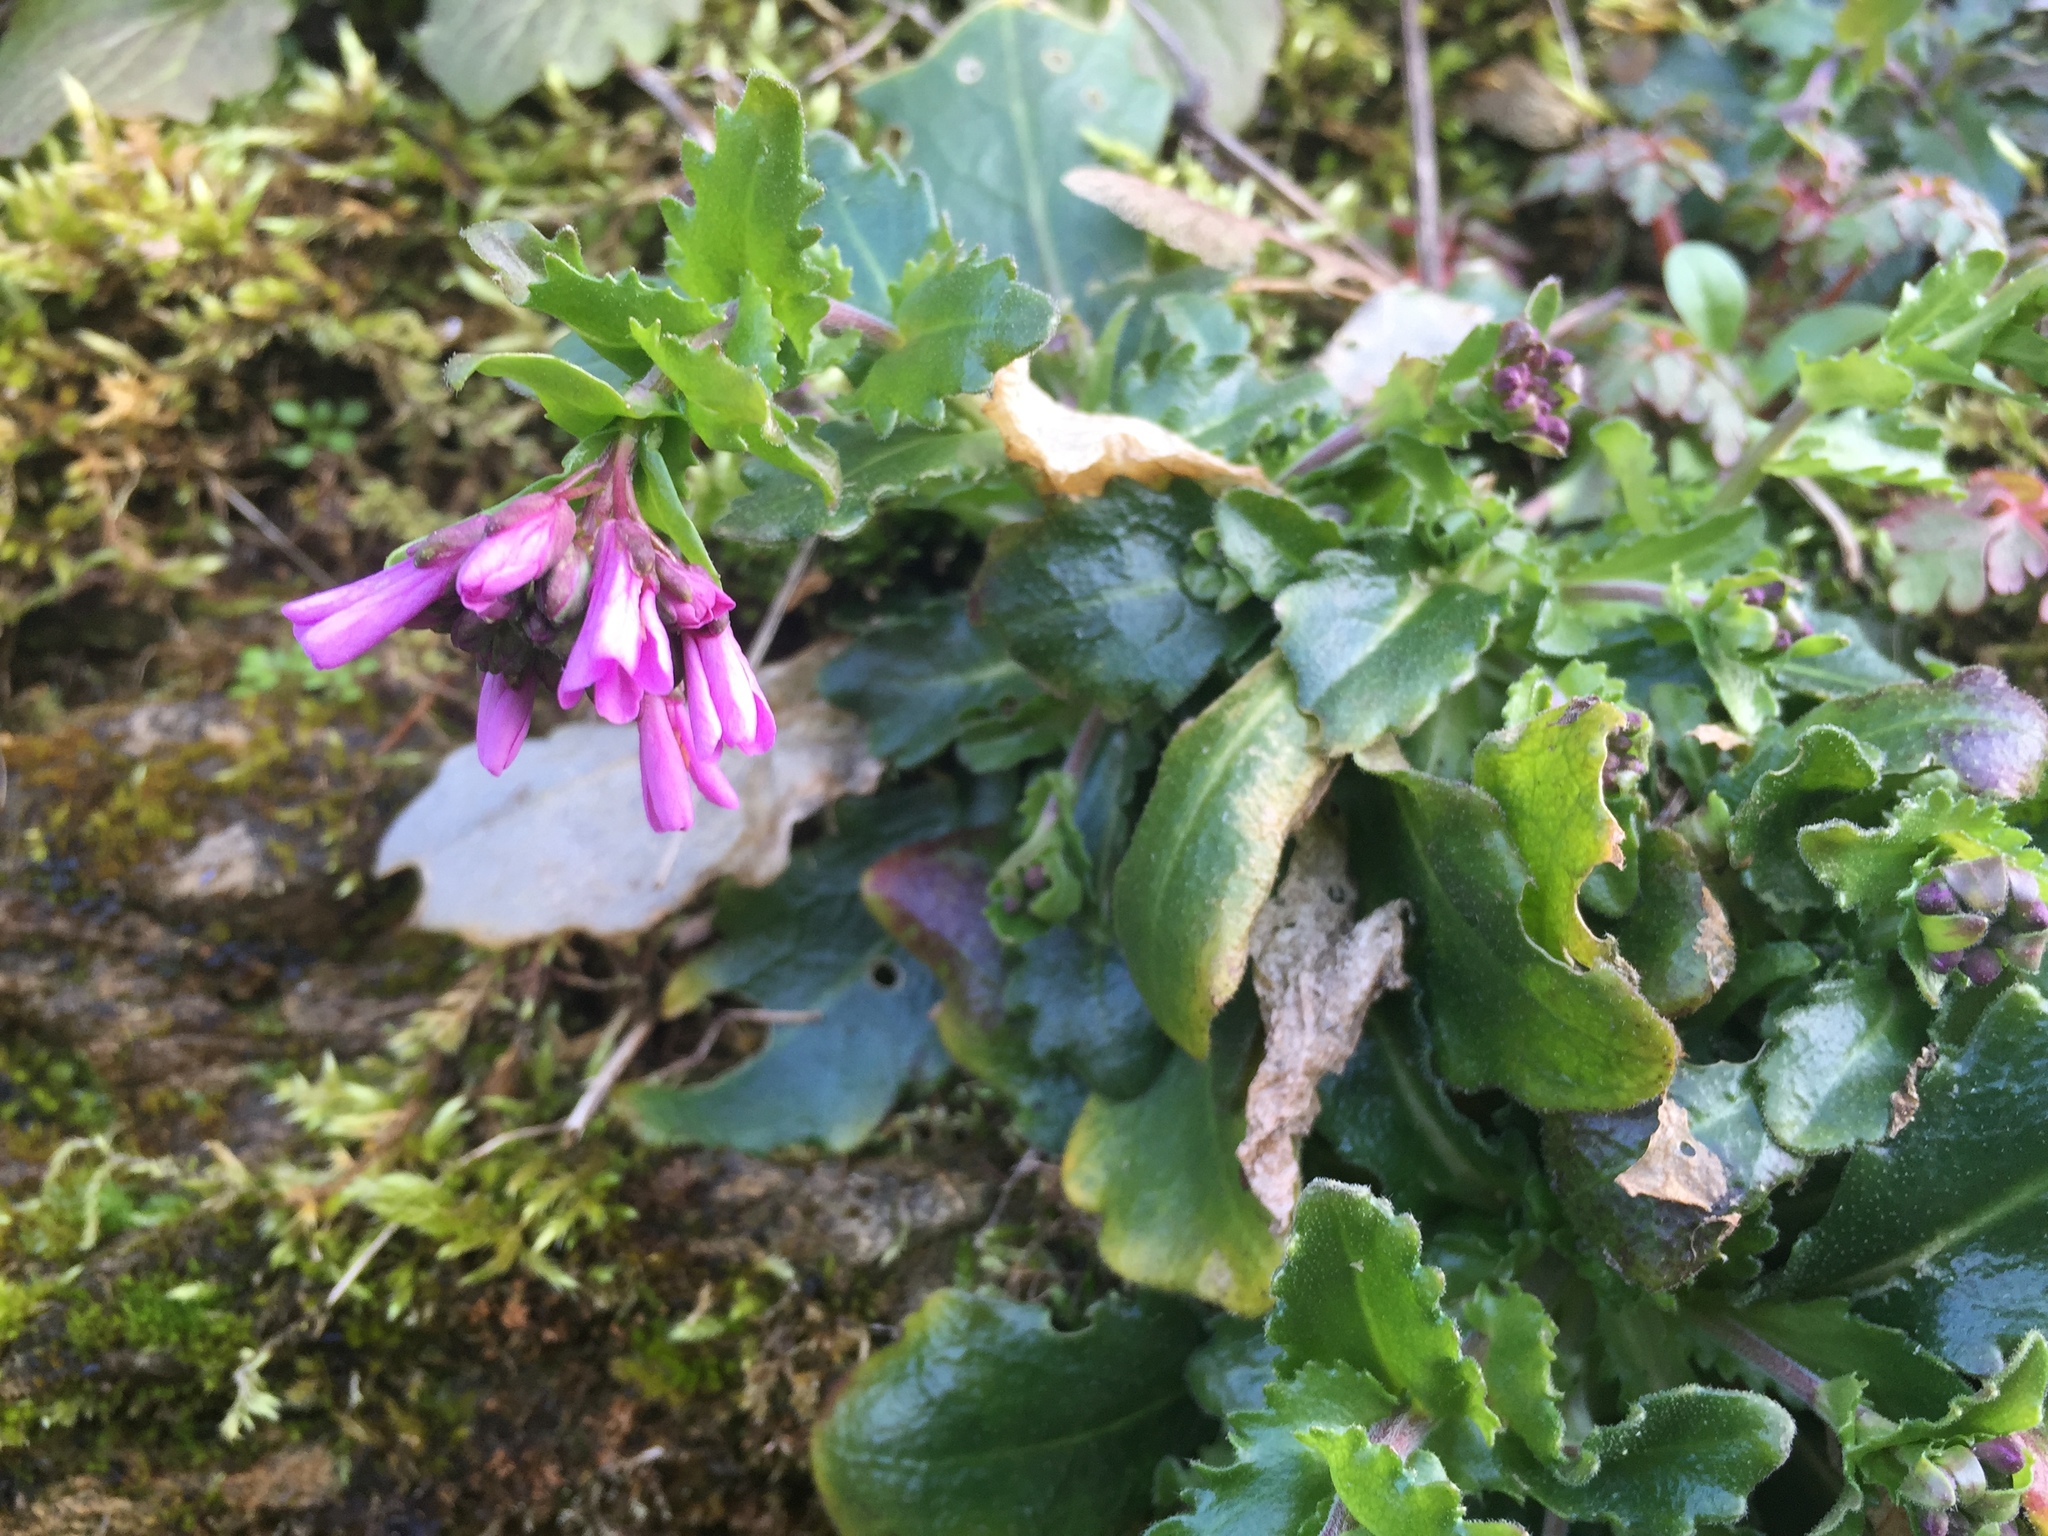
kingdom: Plantae
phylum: Tracheophyta
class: Magnoliopsida
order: Brassicales
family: Brassicaceae
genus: Arabis
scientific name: Arabis collina
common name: Rosy cress
